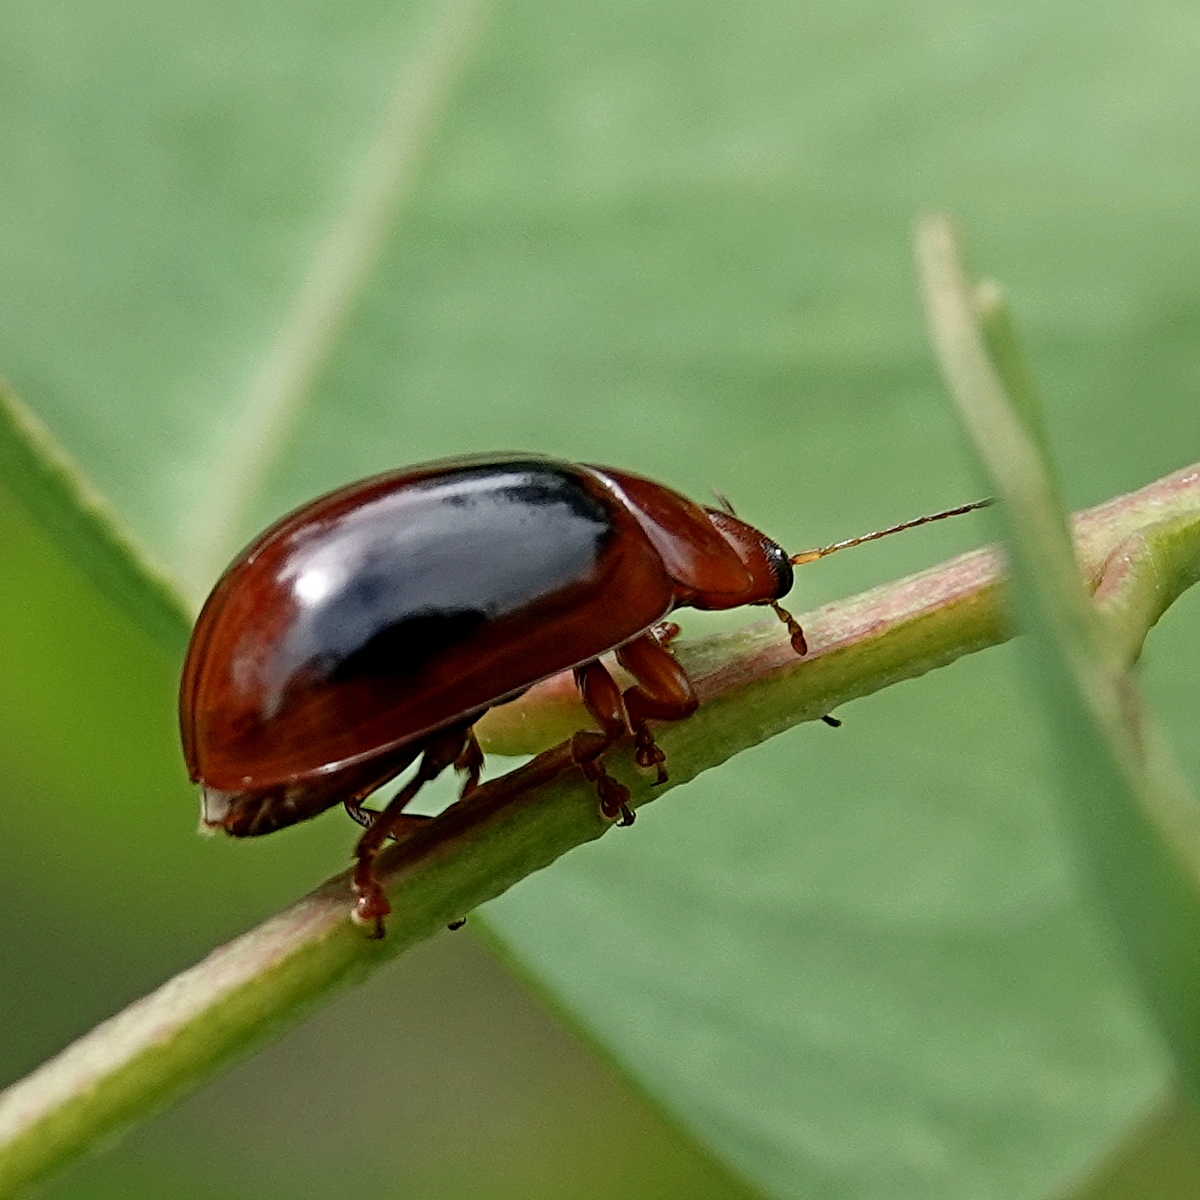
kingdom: Animalia
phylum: Arthropoda
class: Insecta
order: Coleoptera
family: Chrysomelidae
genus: Paropsisterna
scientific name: Paropsisterna
